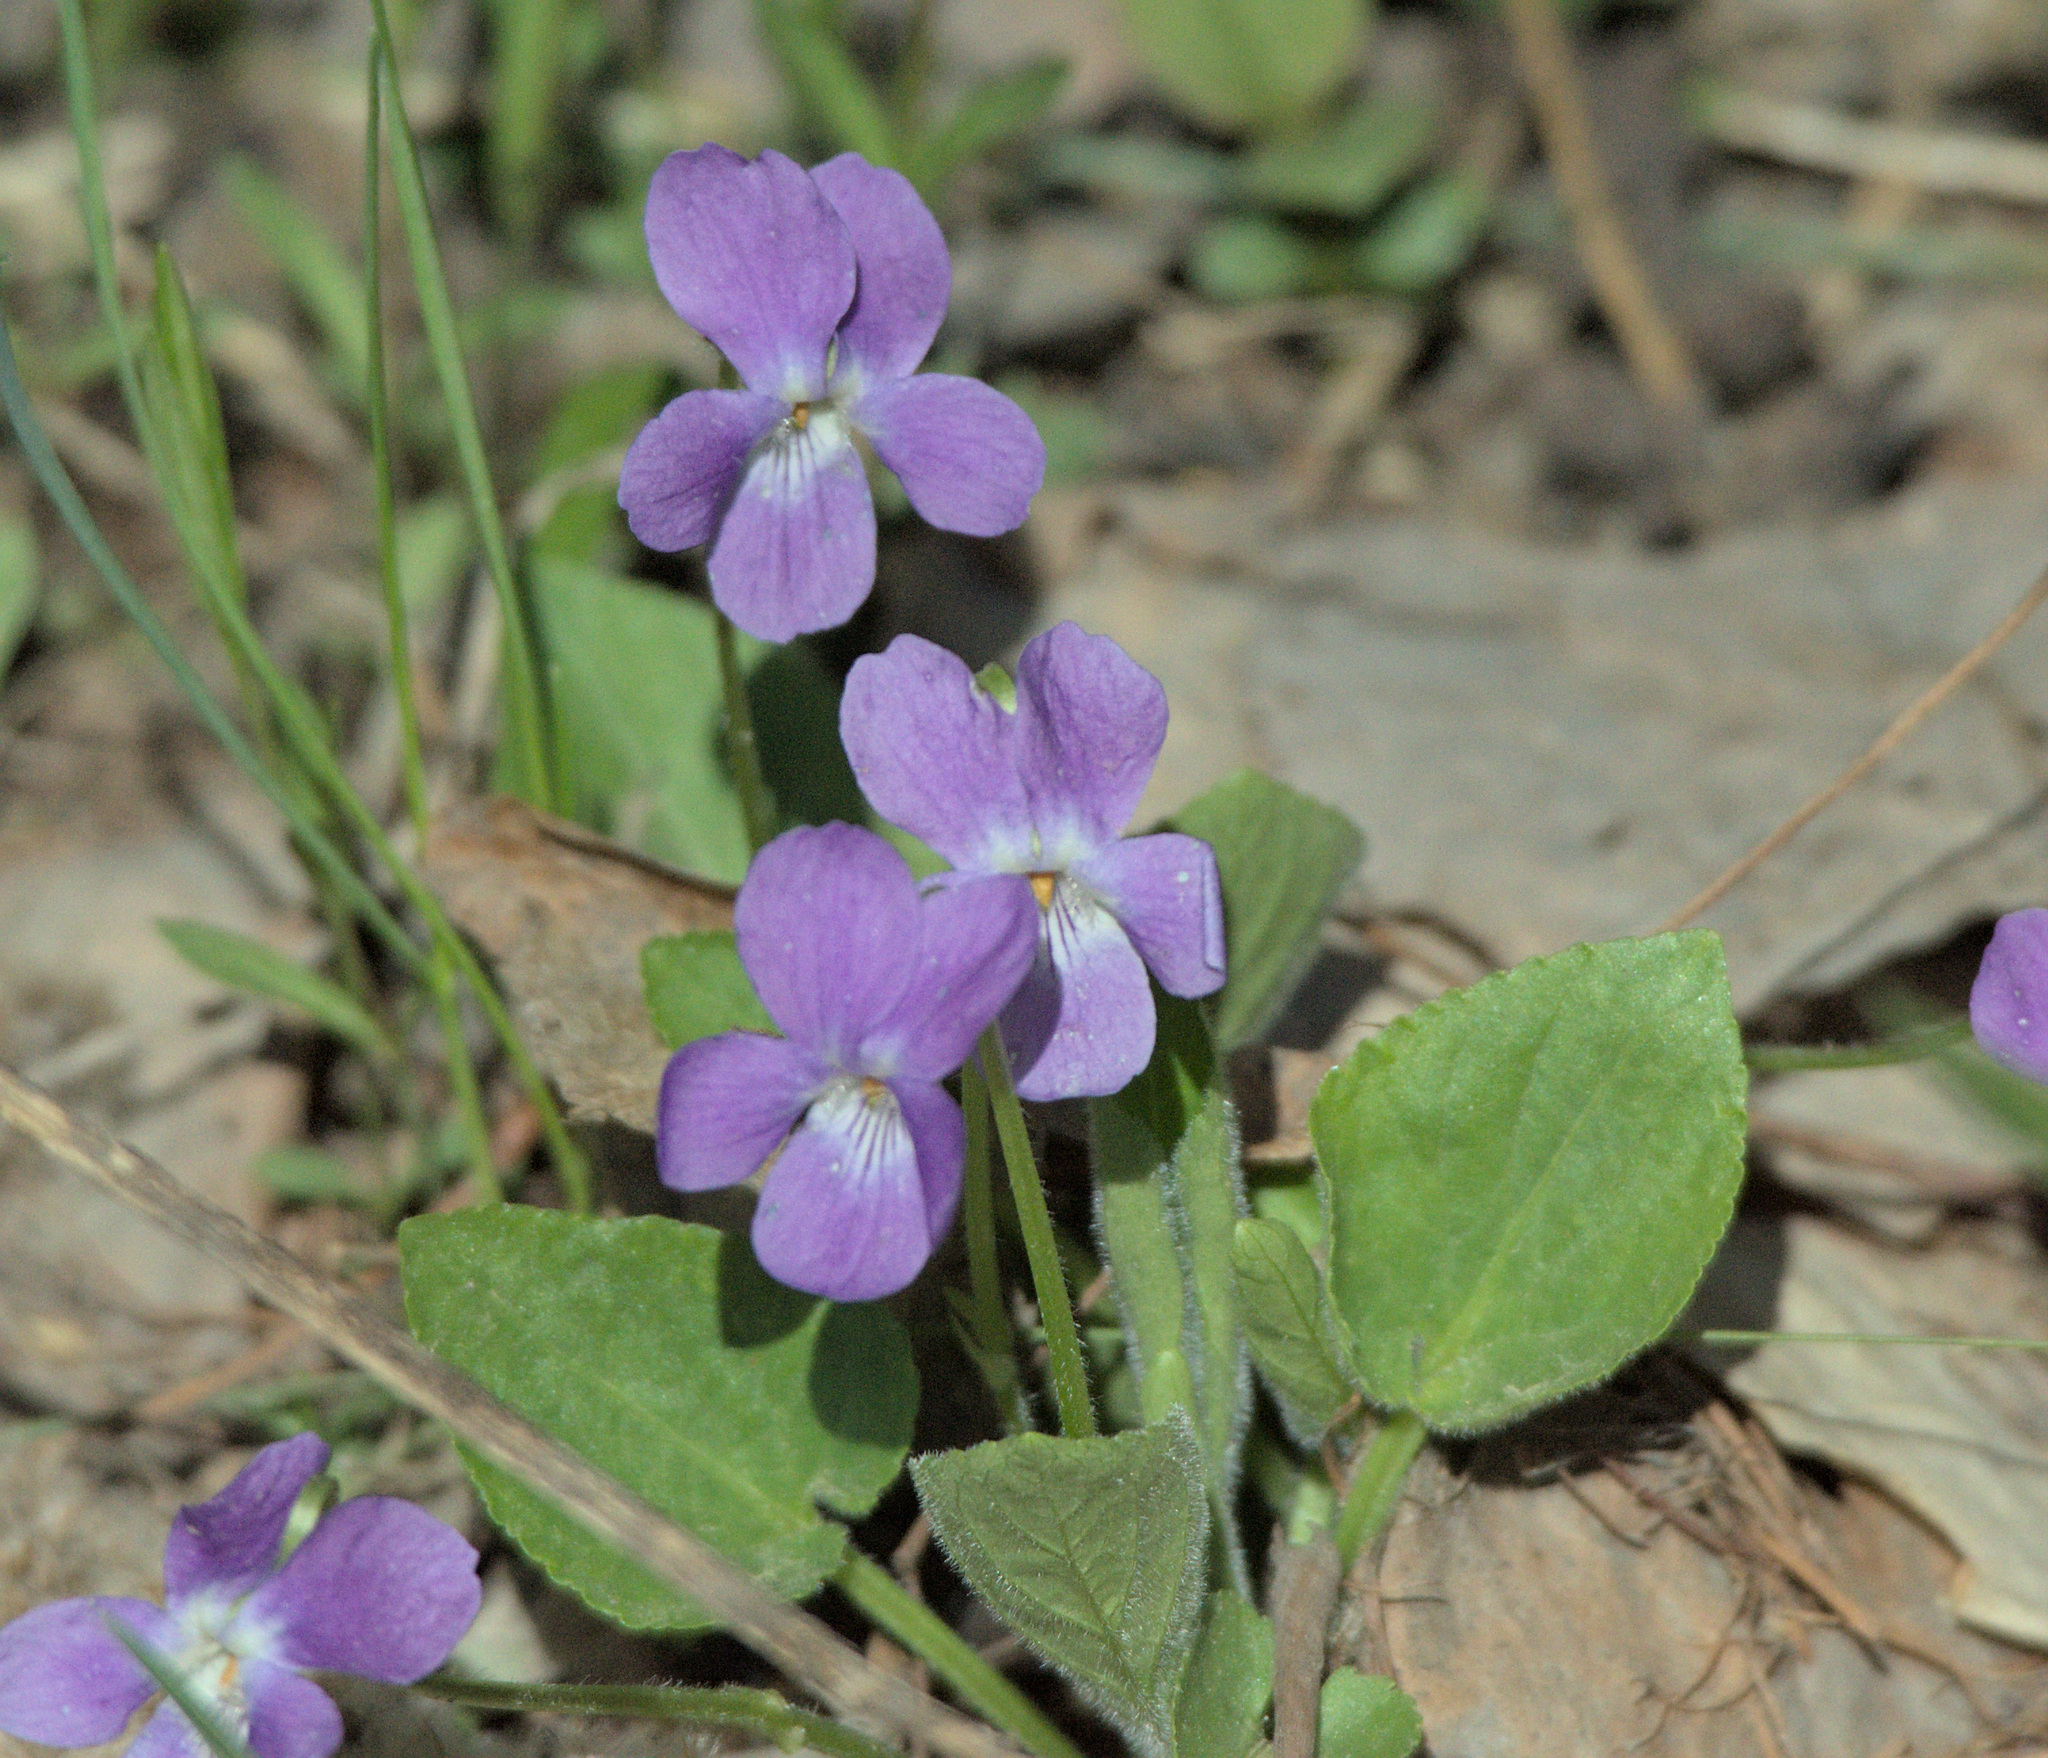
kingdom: Plantae
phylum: Tracheophyta
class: Magnoliopsida
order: Malpighiales
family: Violaceae
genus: Viola
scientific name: Viola hirta
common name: Hairy violet
